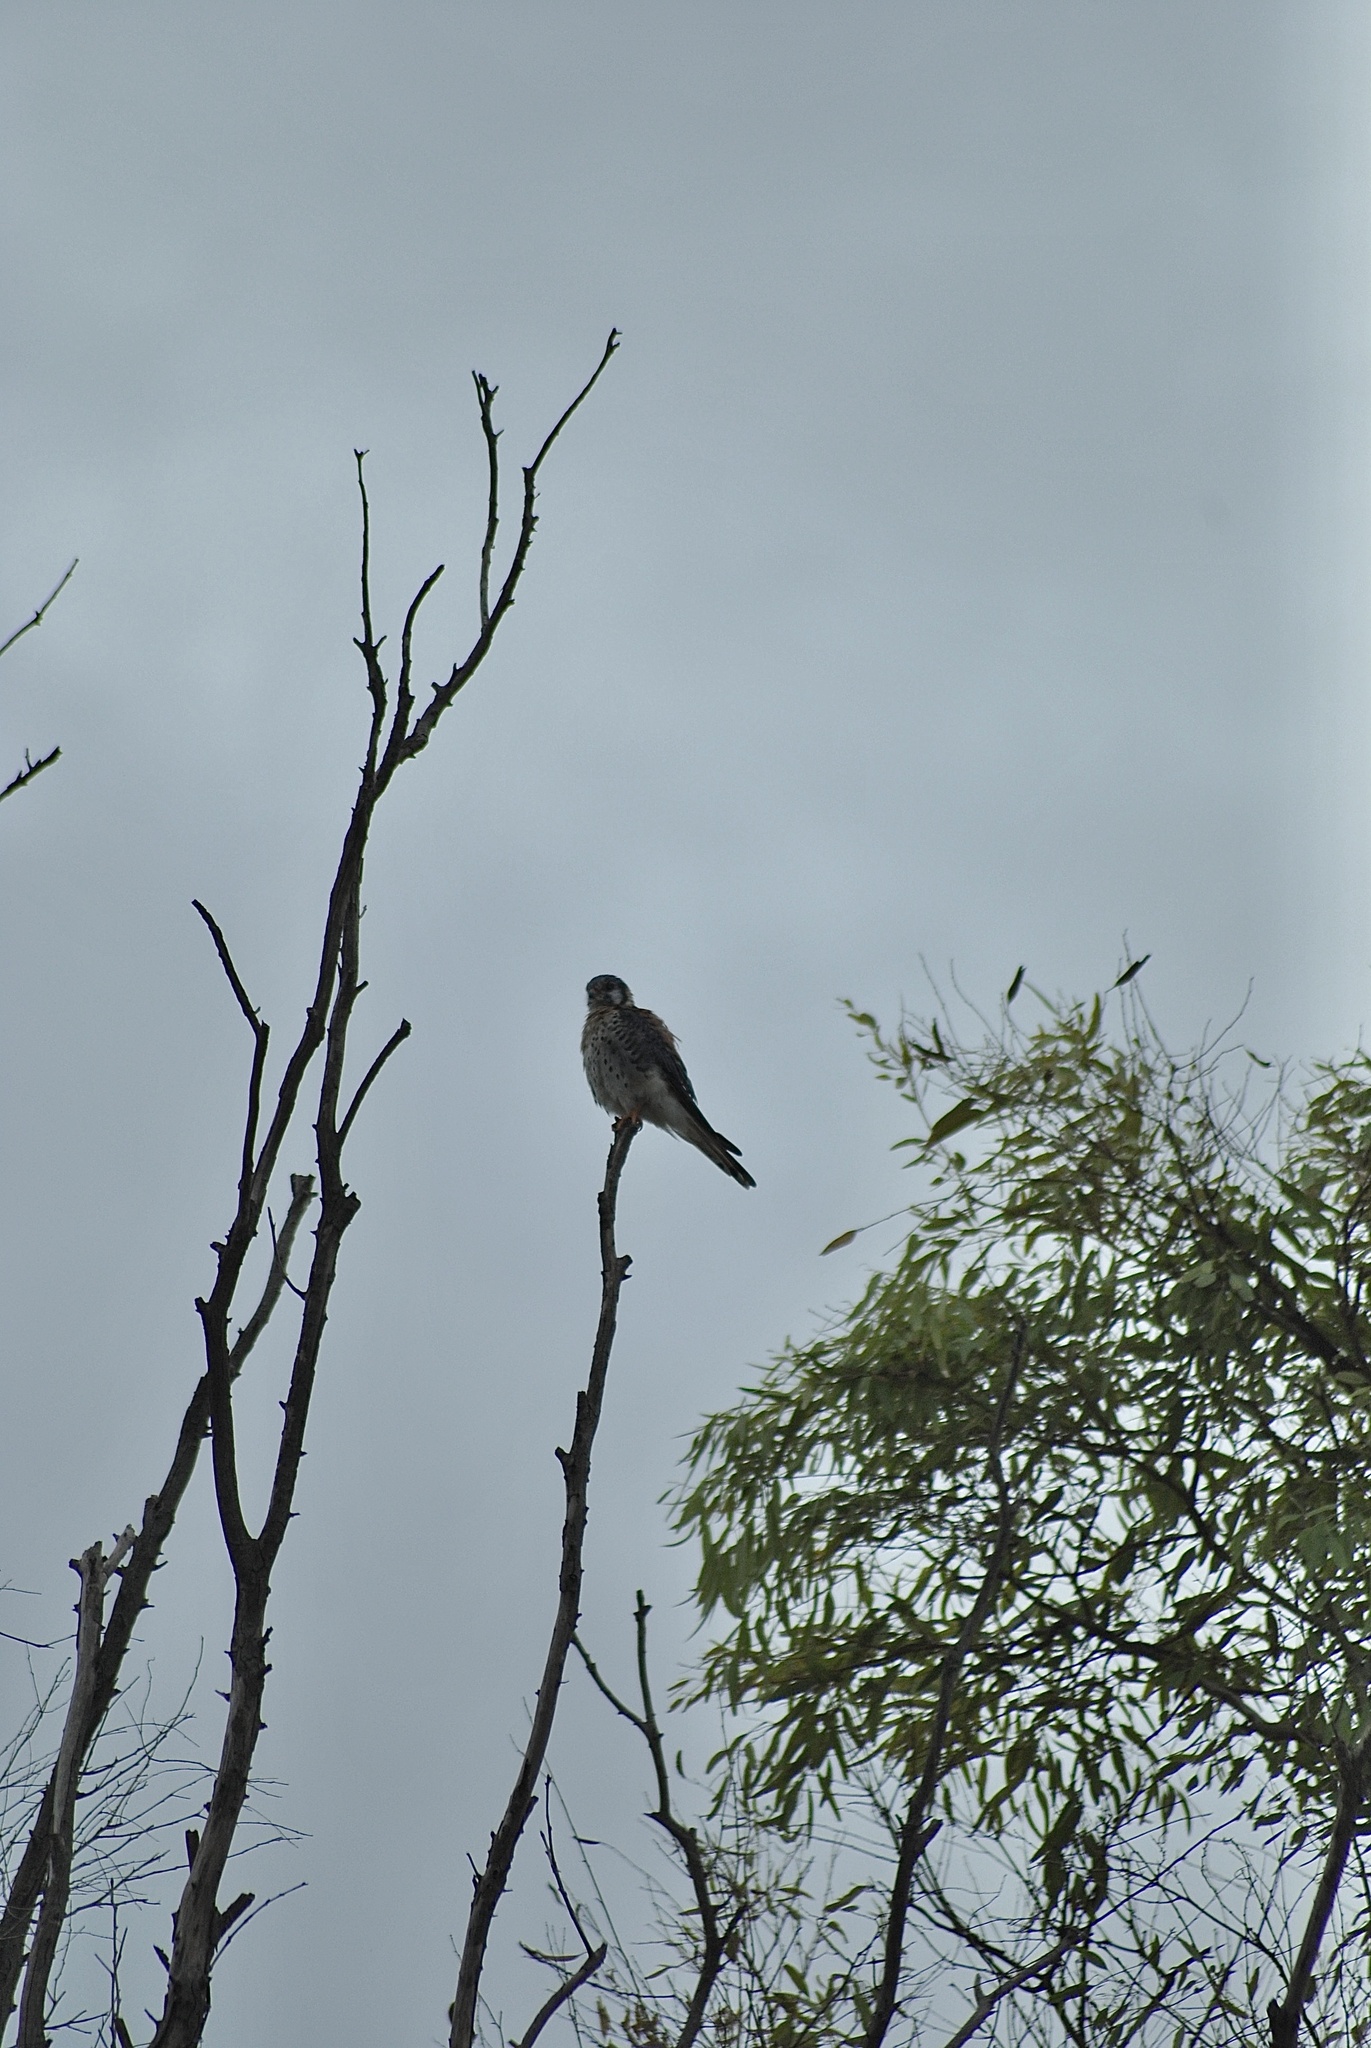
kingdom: Animalia
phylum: Chordata
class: Aves
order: Falconiformes
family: Falconidae
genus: Falco
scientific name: Falco sparverius
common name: American kestrel
